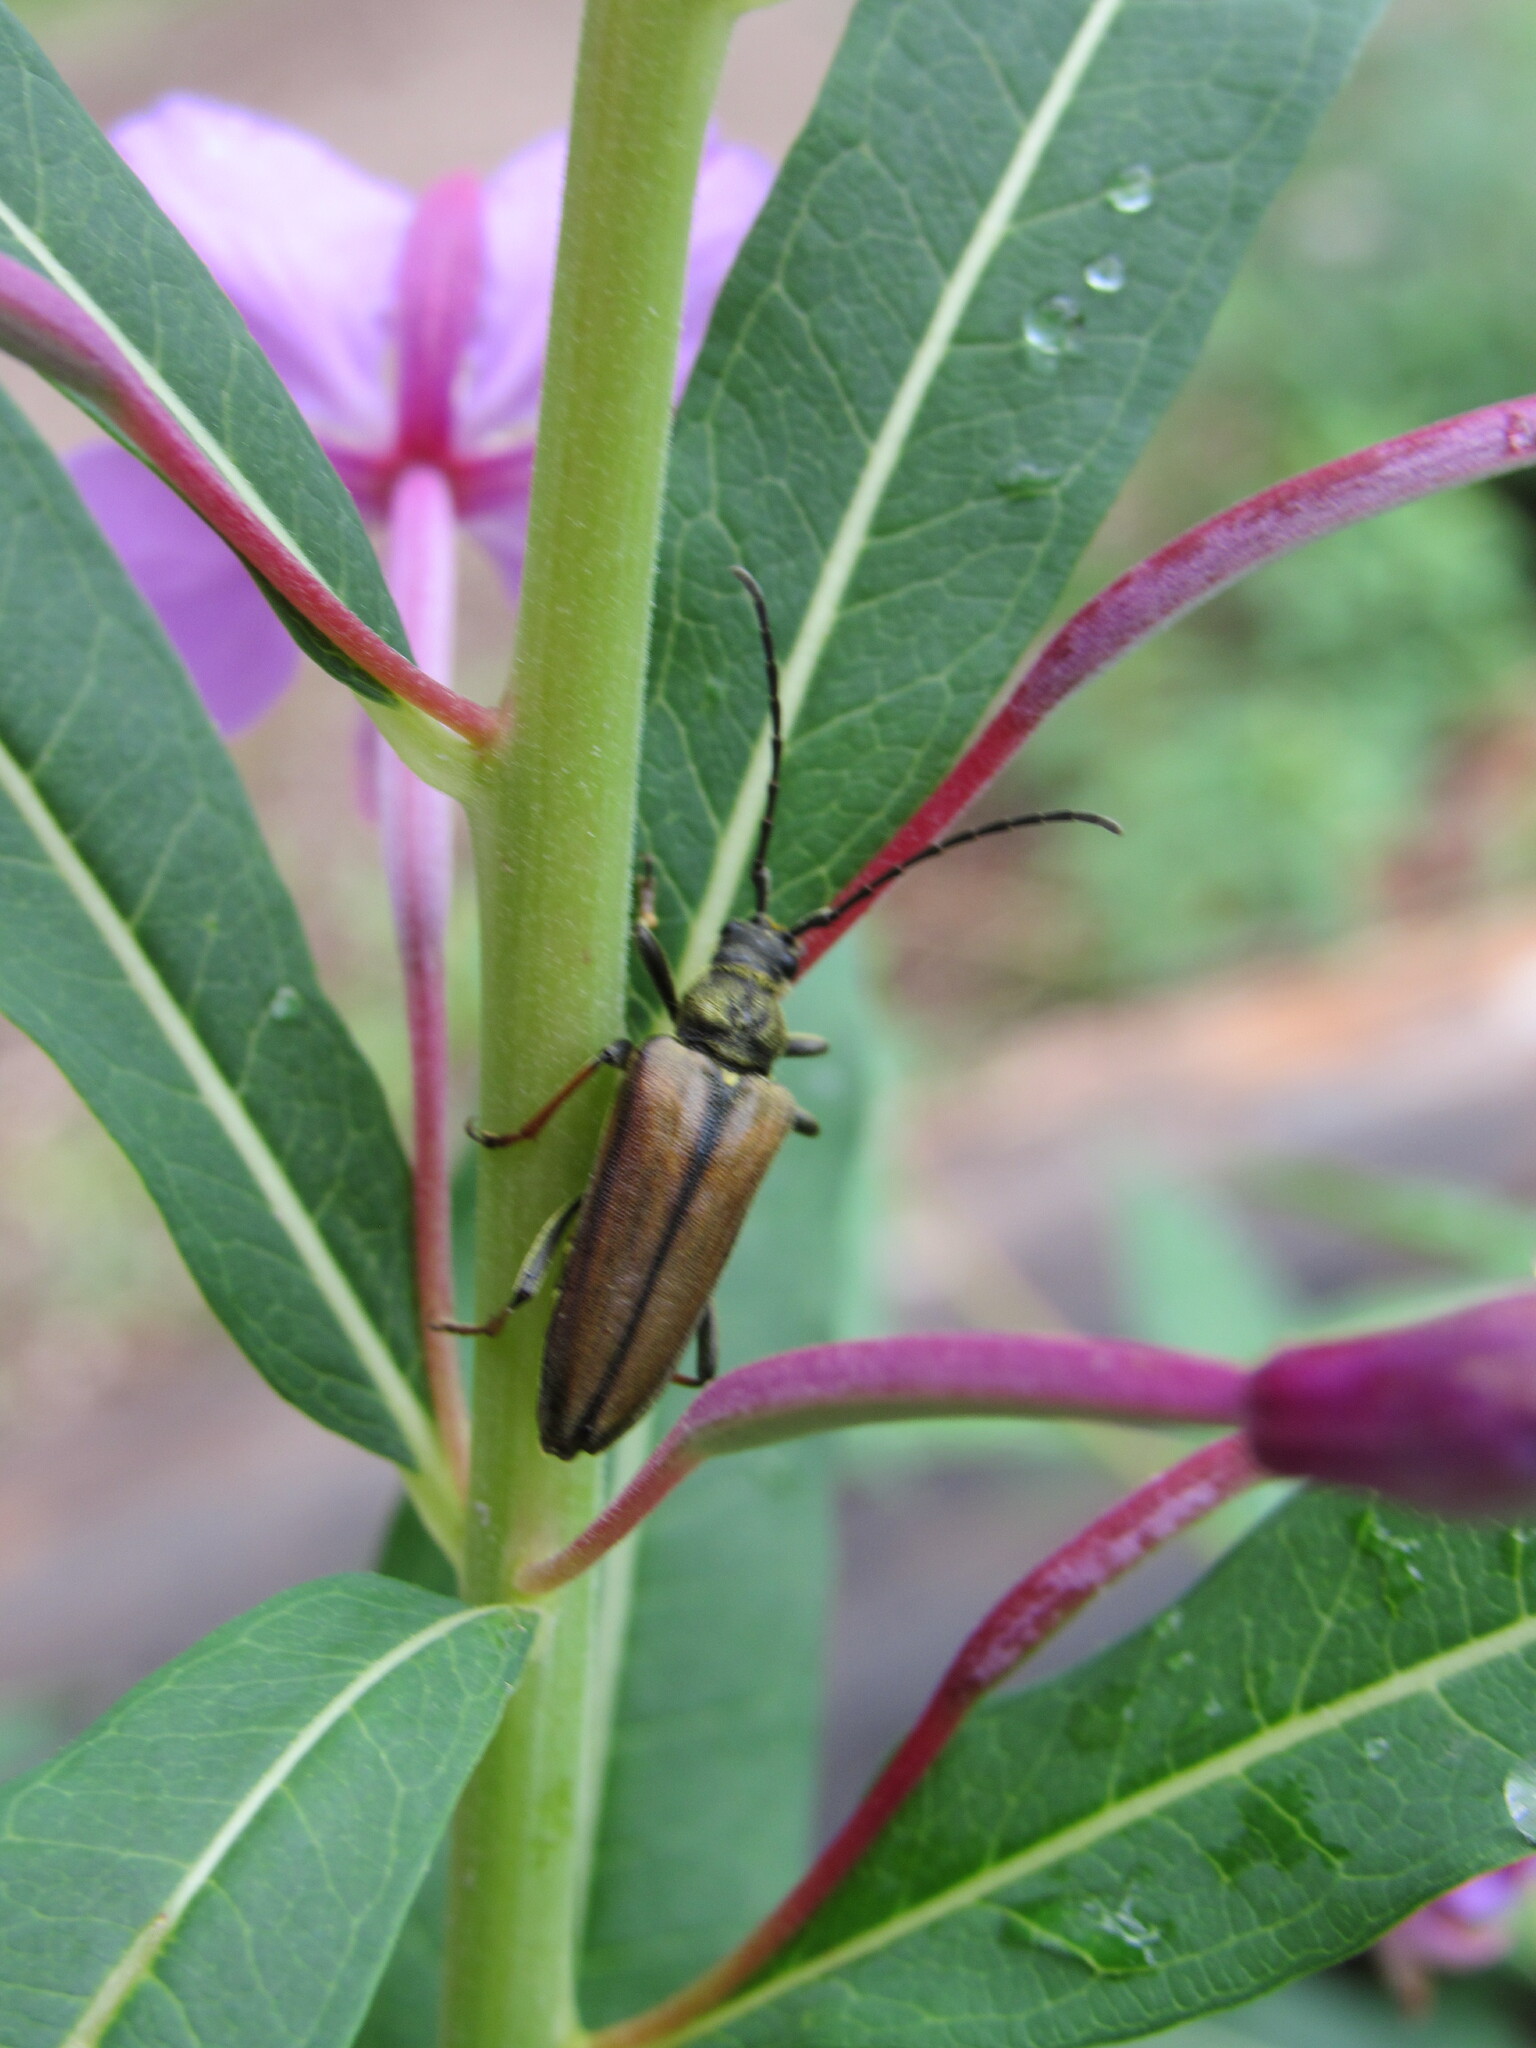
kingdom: Animalia
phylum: Arthropoda
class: Insecta
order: Coleoptera
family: Cerambycidae
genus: Lepturobosca
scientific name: Lepturobosca
